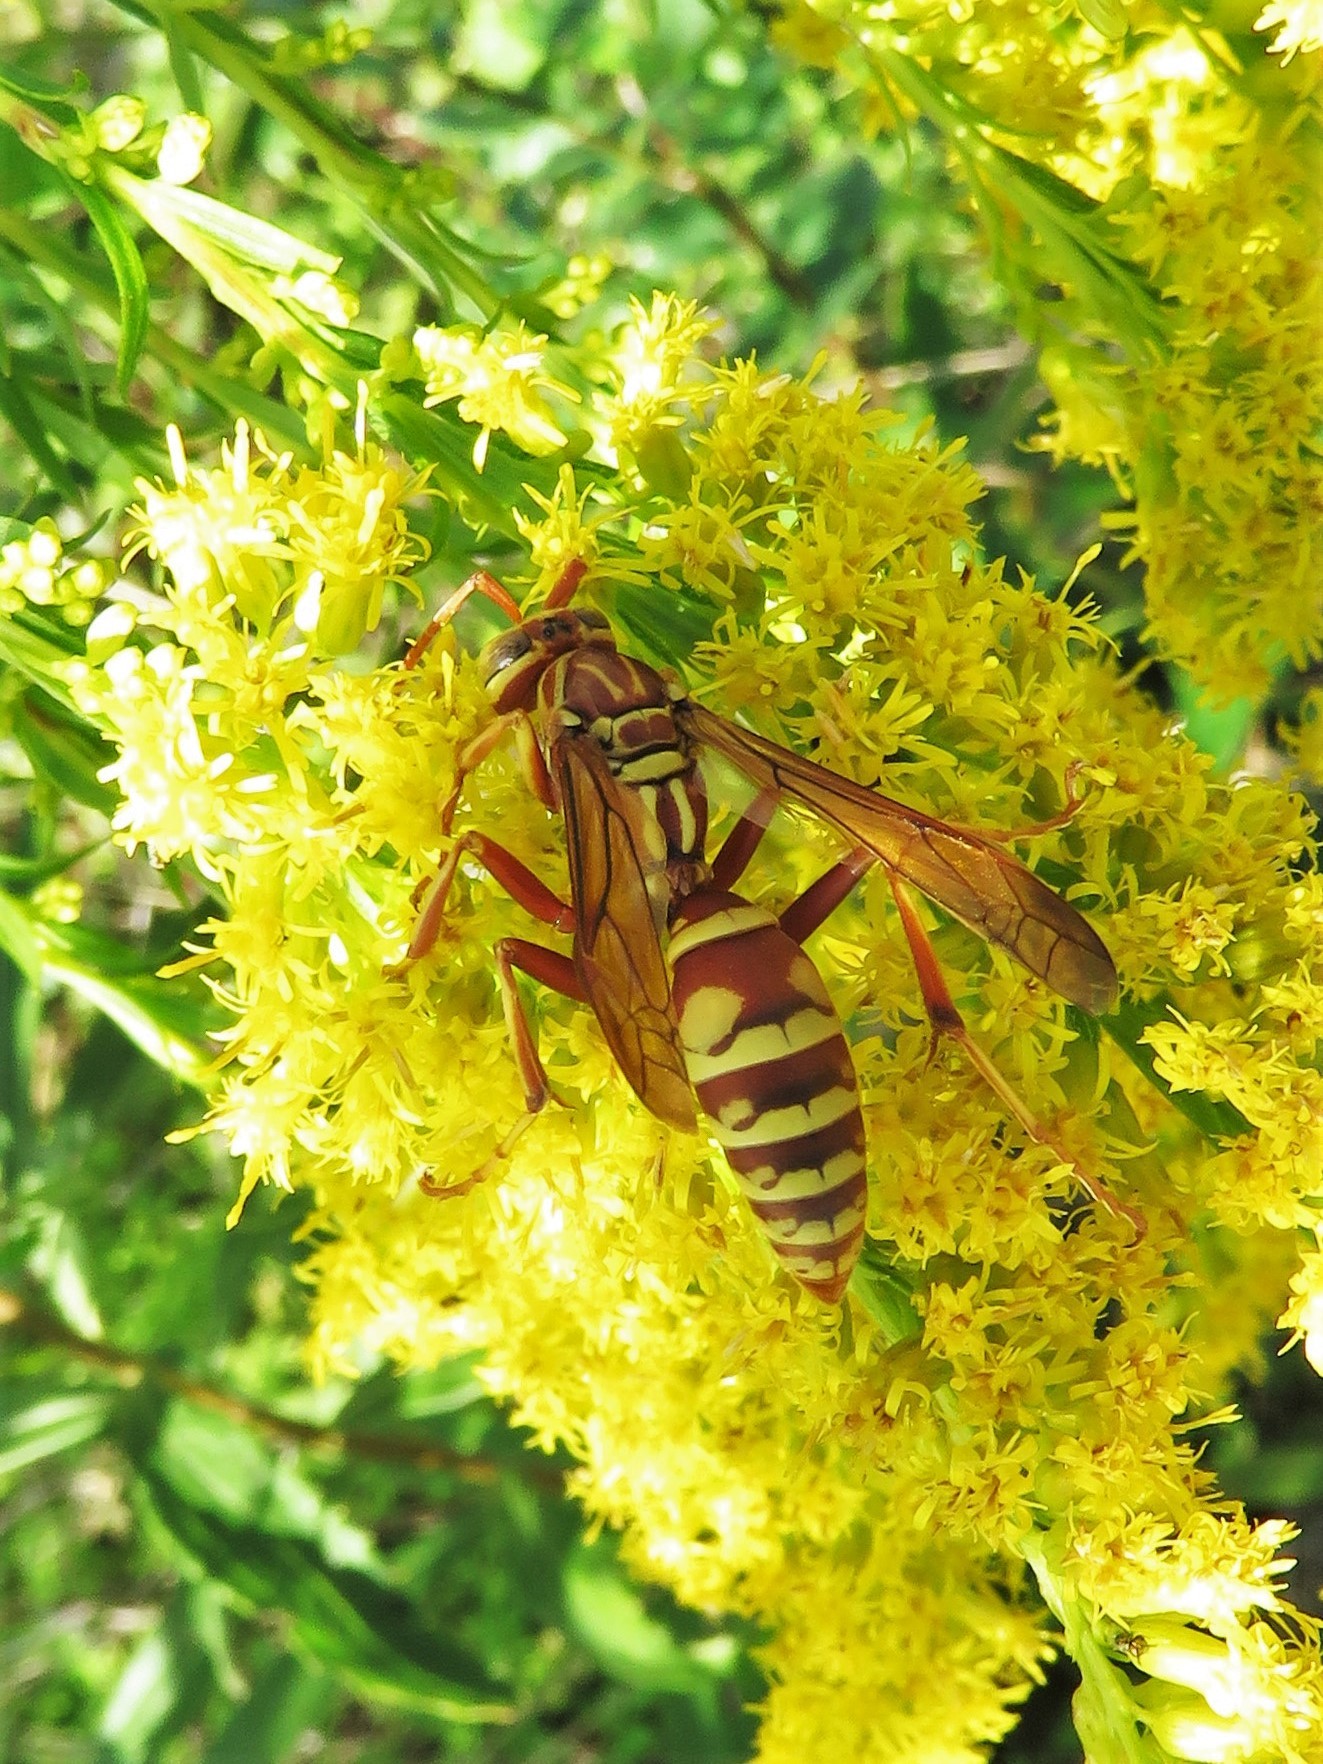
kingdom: Animalia
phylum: Arthropoda
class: Insecta
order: Hymenoptera
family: Eumenidae
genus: Polistes
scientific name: Polistes apachus
